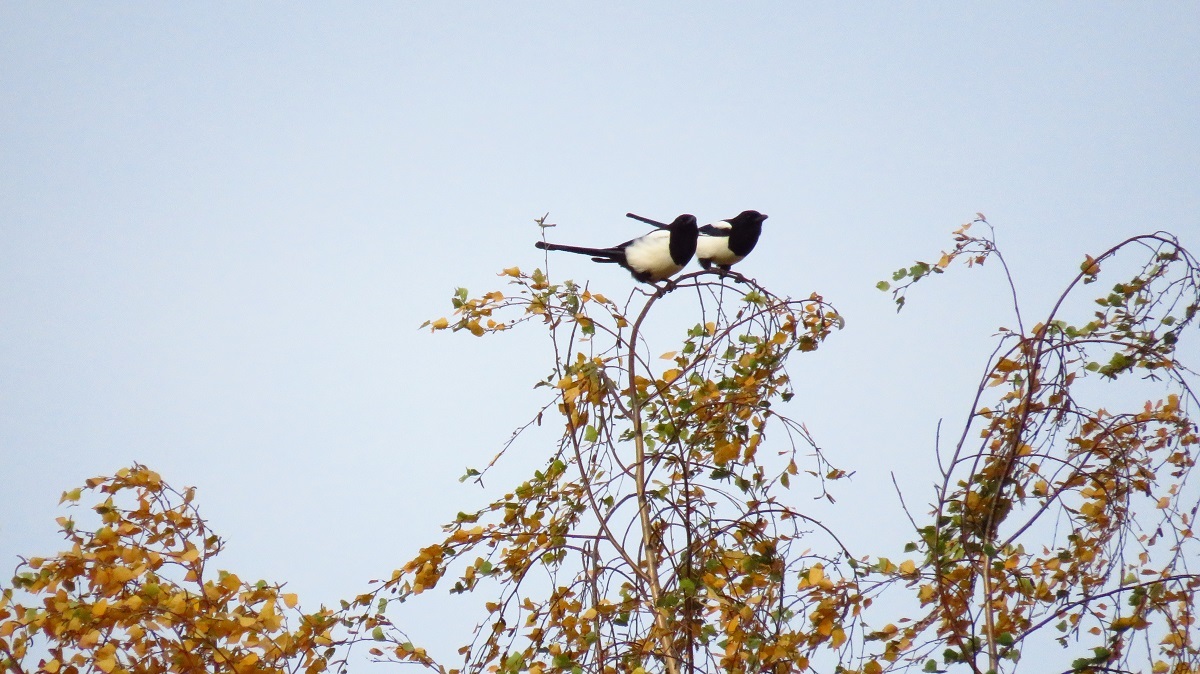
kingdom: Animalia
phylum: Chordata
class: Aves
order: Passeriformes
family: Corvidae
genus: Pica
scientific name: Pica pica
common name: Eurasian magpie
